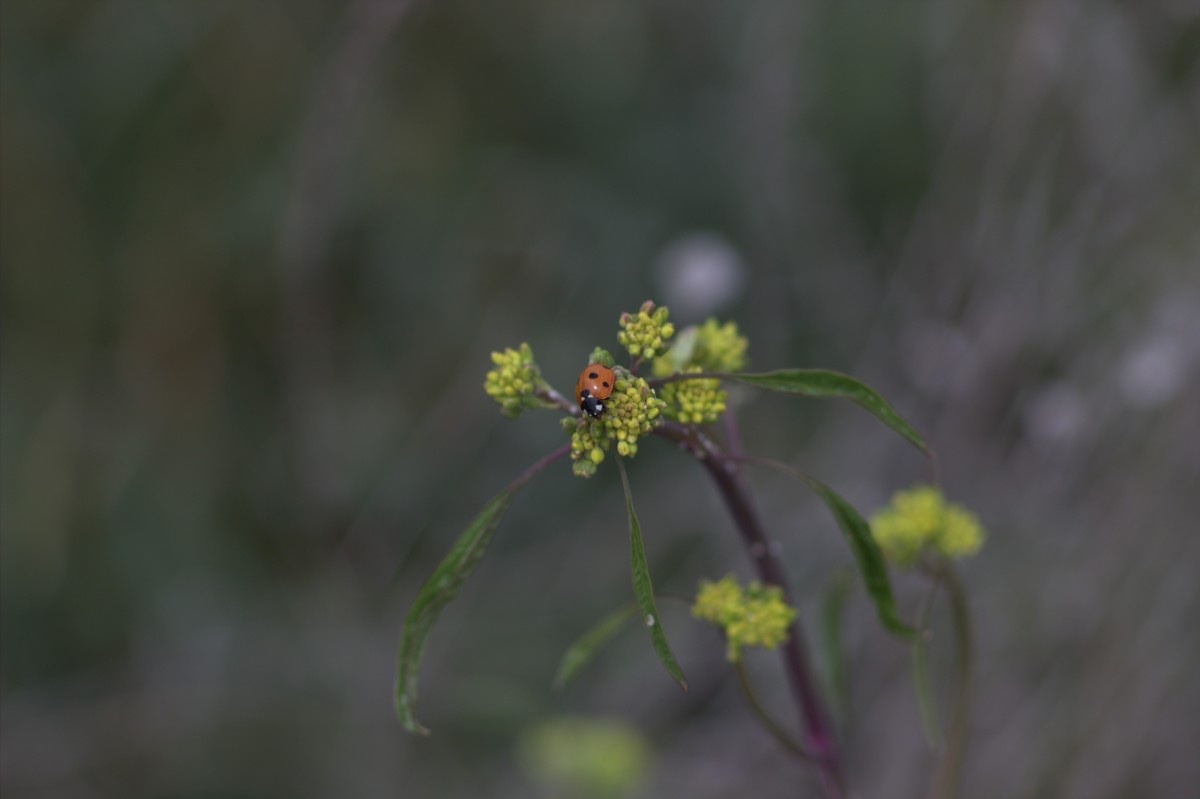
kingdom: Animalia
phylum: Arthropoda
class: Insecta
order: Coleoptera
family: Coccinellidae
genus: Coccinella
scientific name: Coccinella septempunctata
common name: Sevenspotted lady beetle
